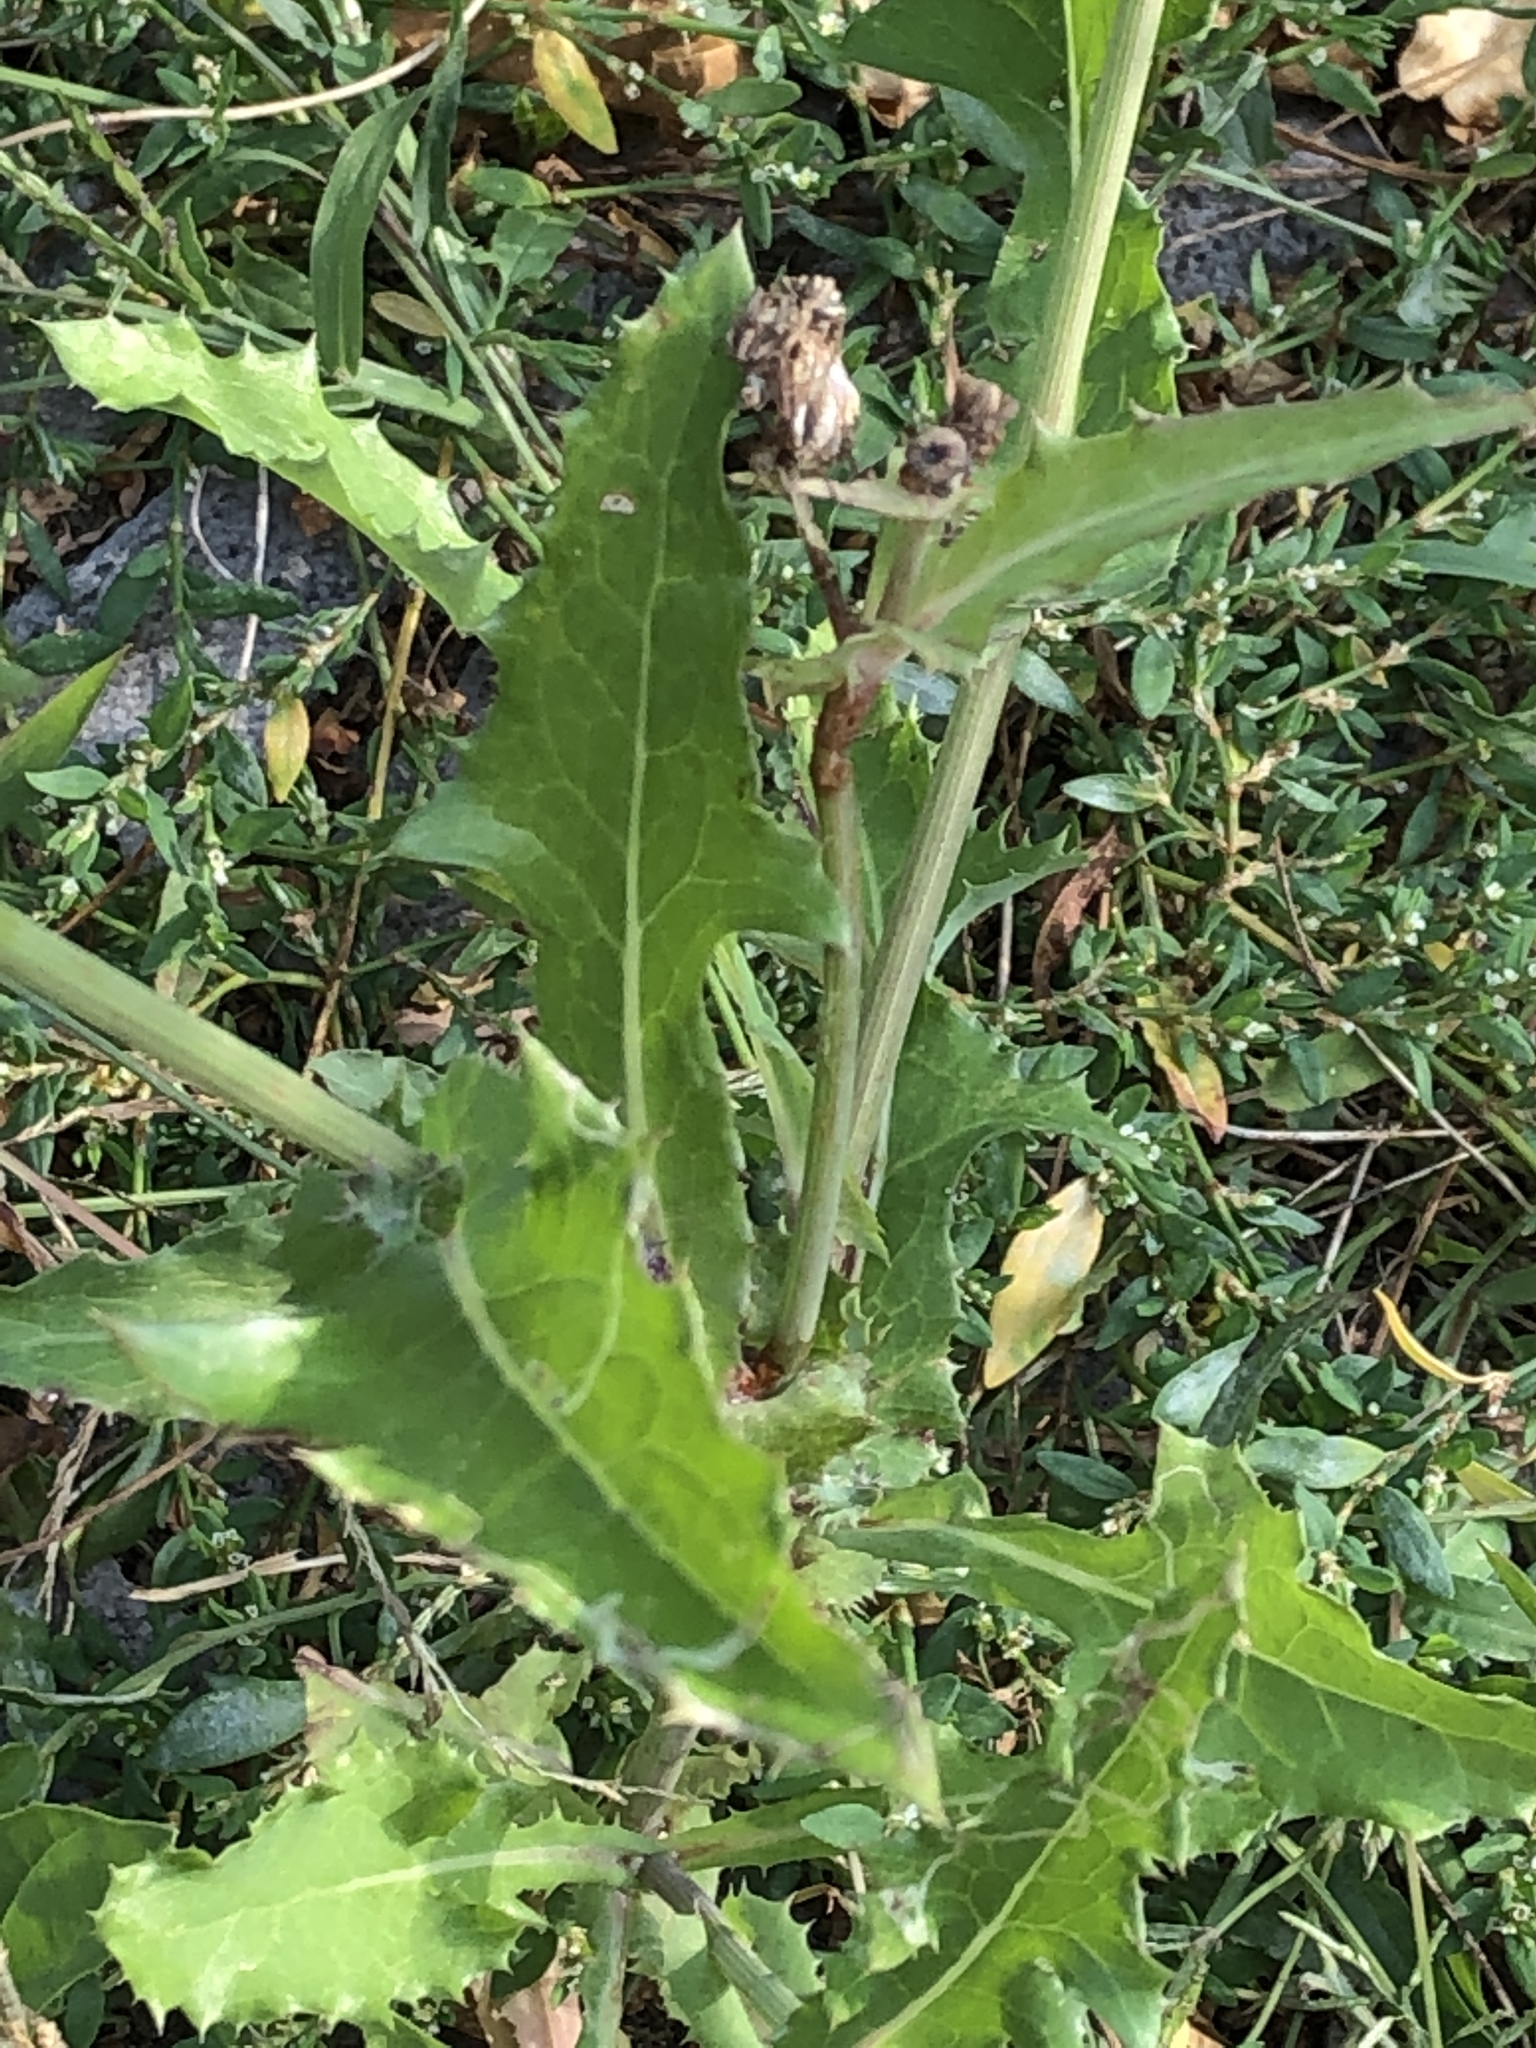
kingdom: Plantae
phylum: Tracheophyta
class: Magnoliopsida
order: Asterales
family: Asteraceae
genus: Sonchus
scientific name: Sonchus oleraceus
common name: Common sowthistle
